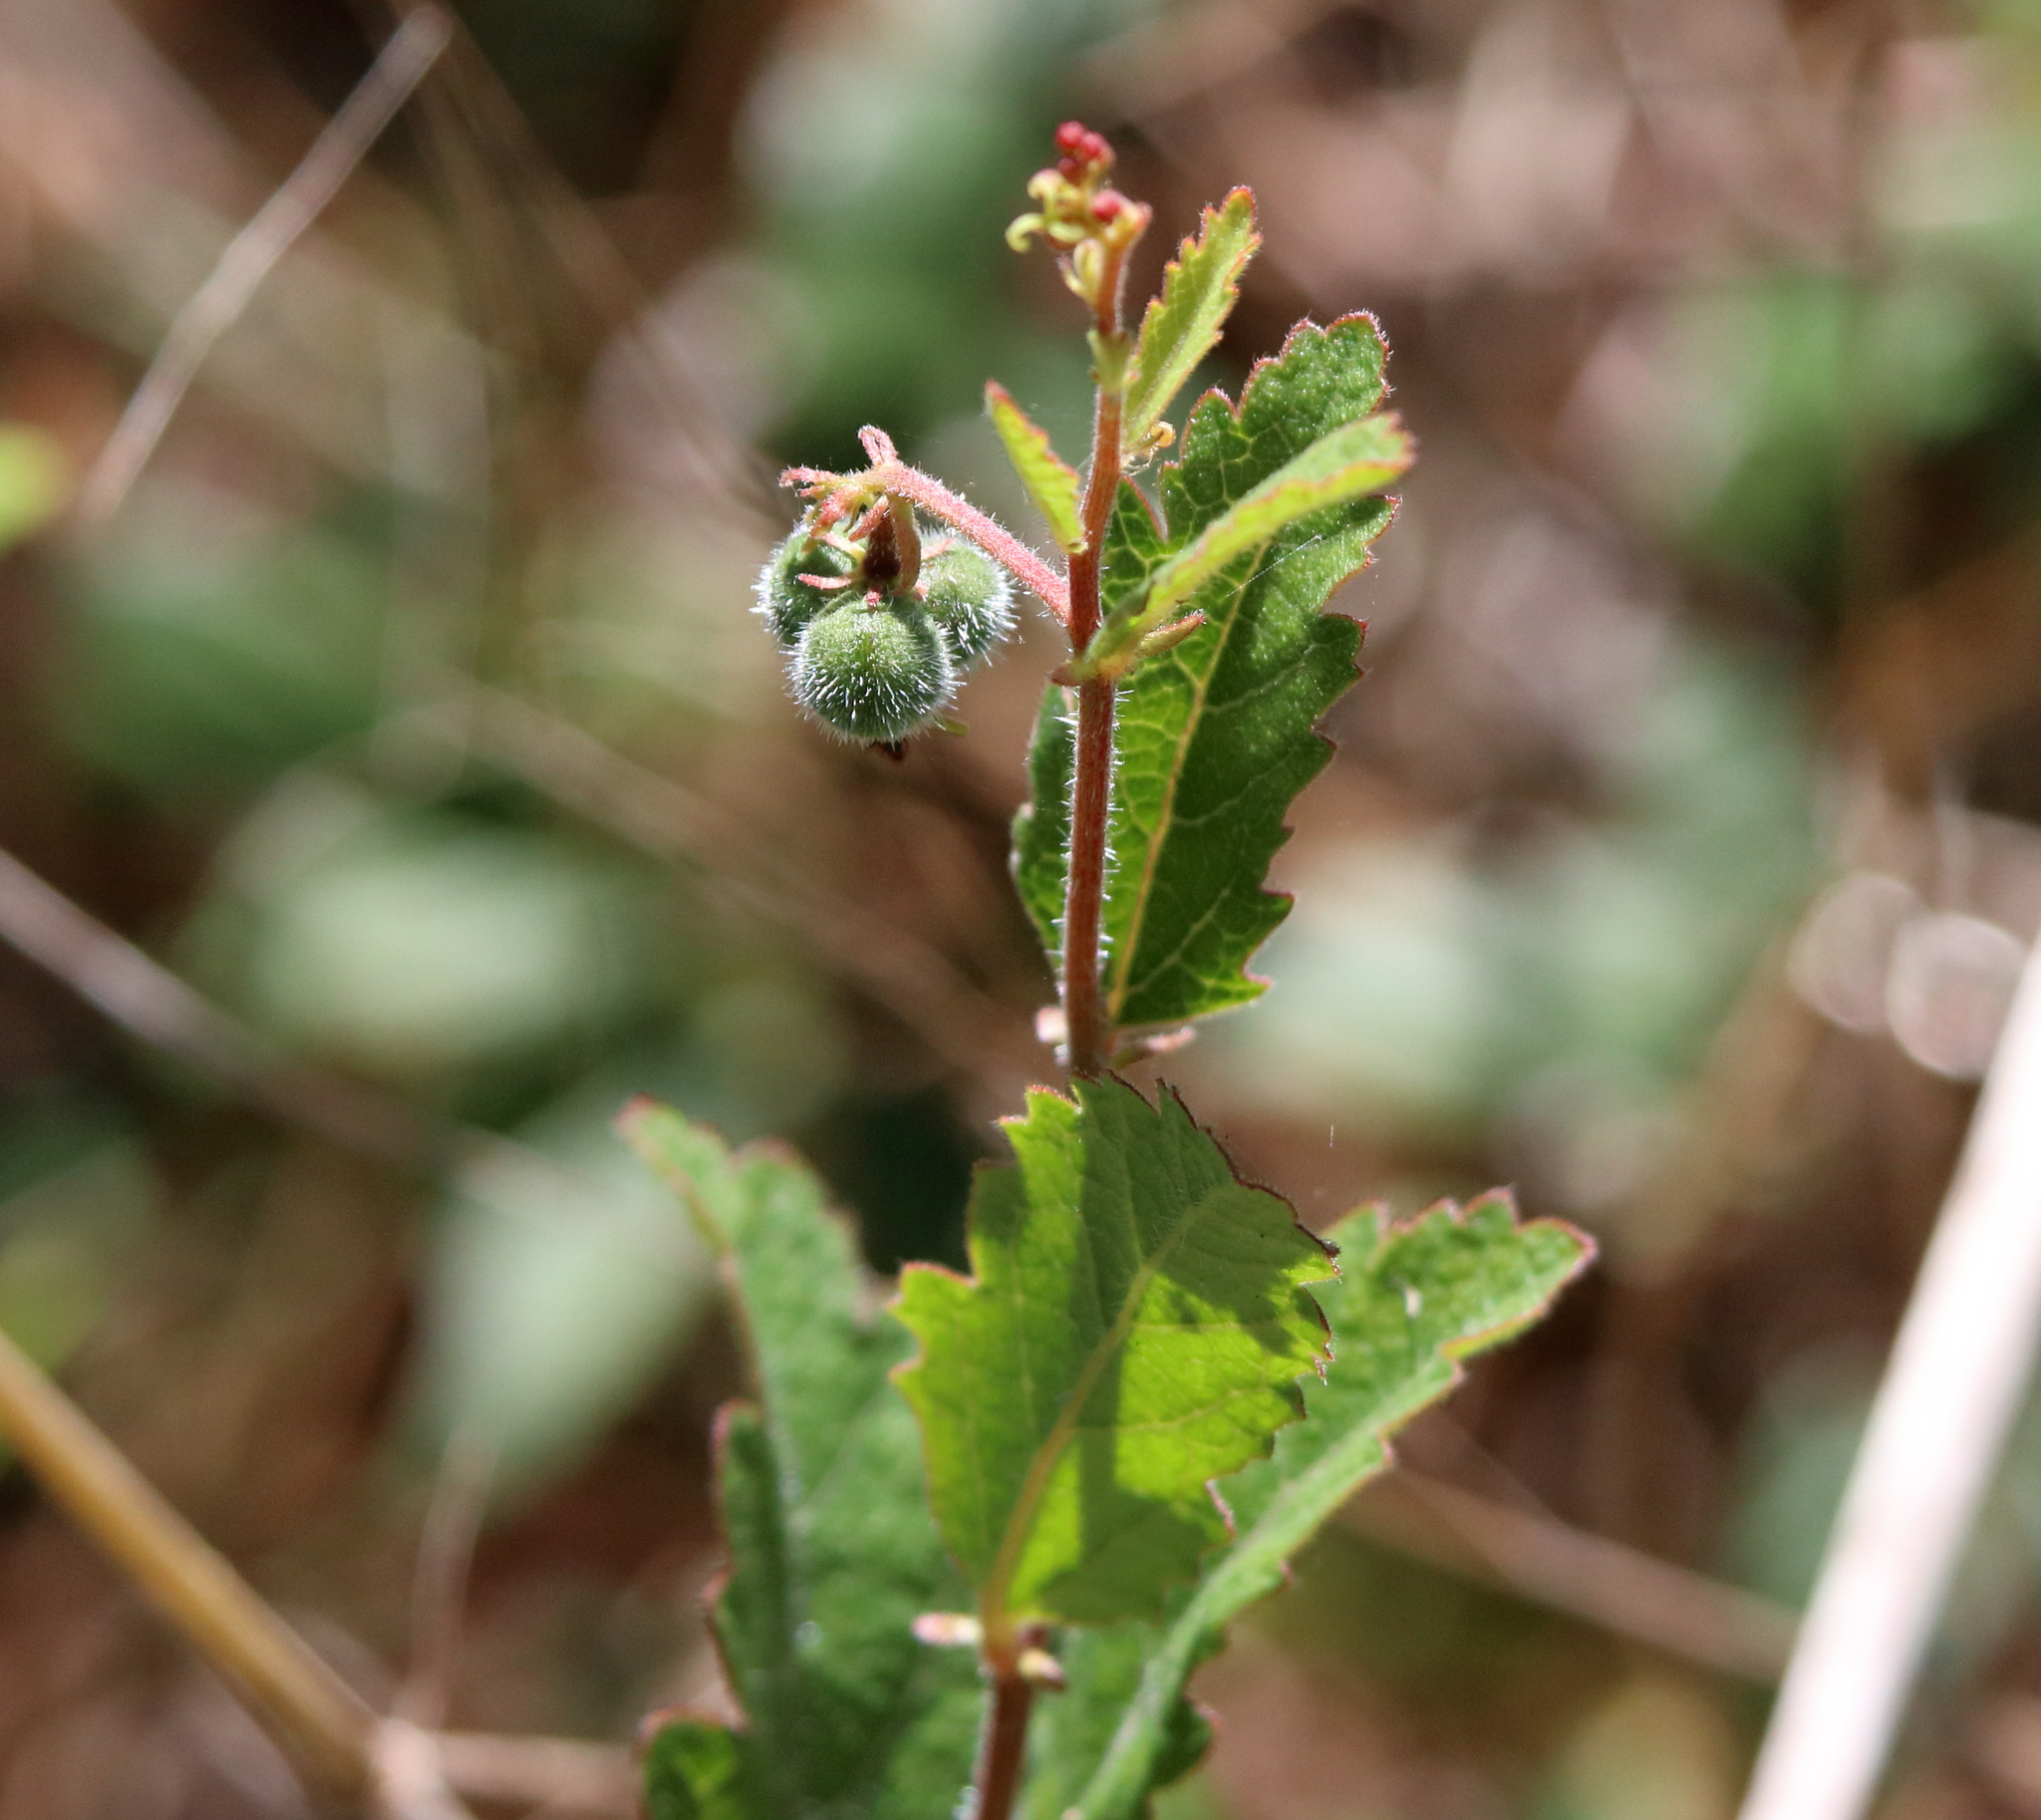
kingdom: Plantae
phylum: Tracheophyta
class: Magnoliopsida
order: Malpighiales
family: Euphorbiaceae
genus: Tragia
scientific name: Tragia smallii
